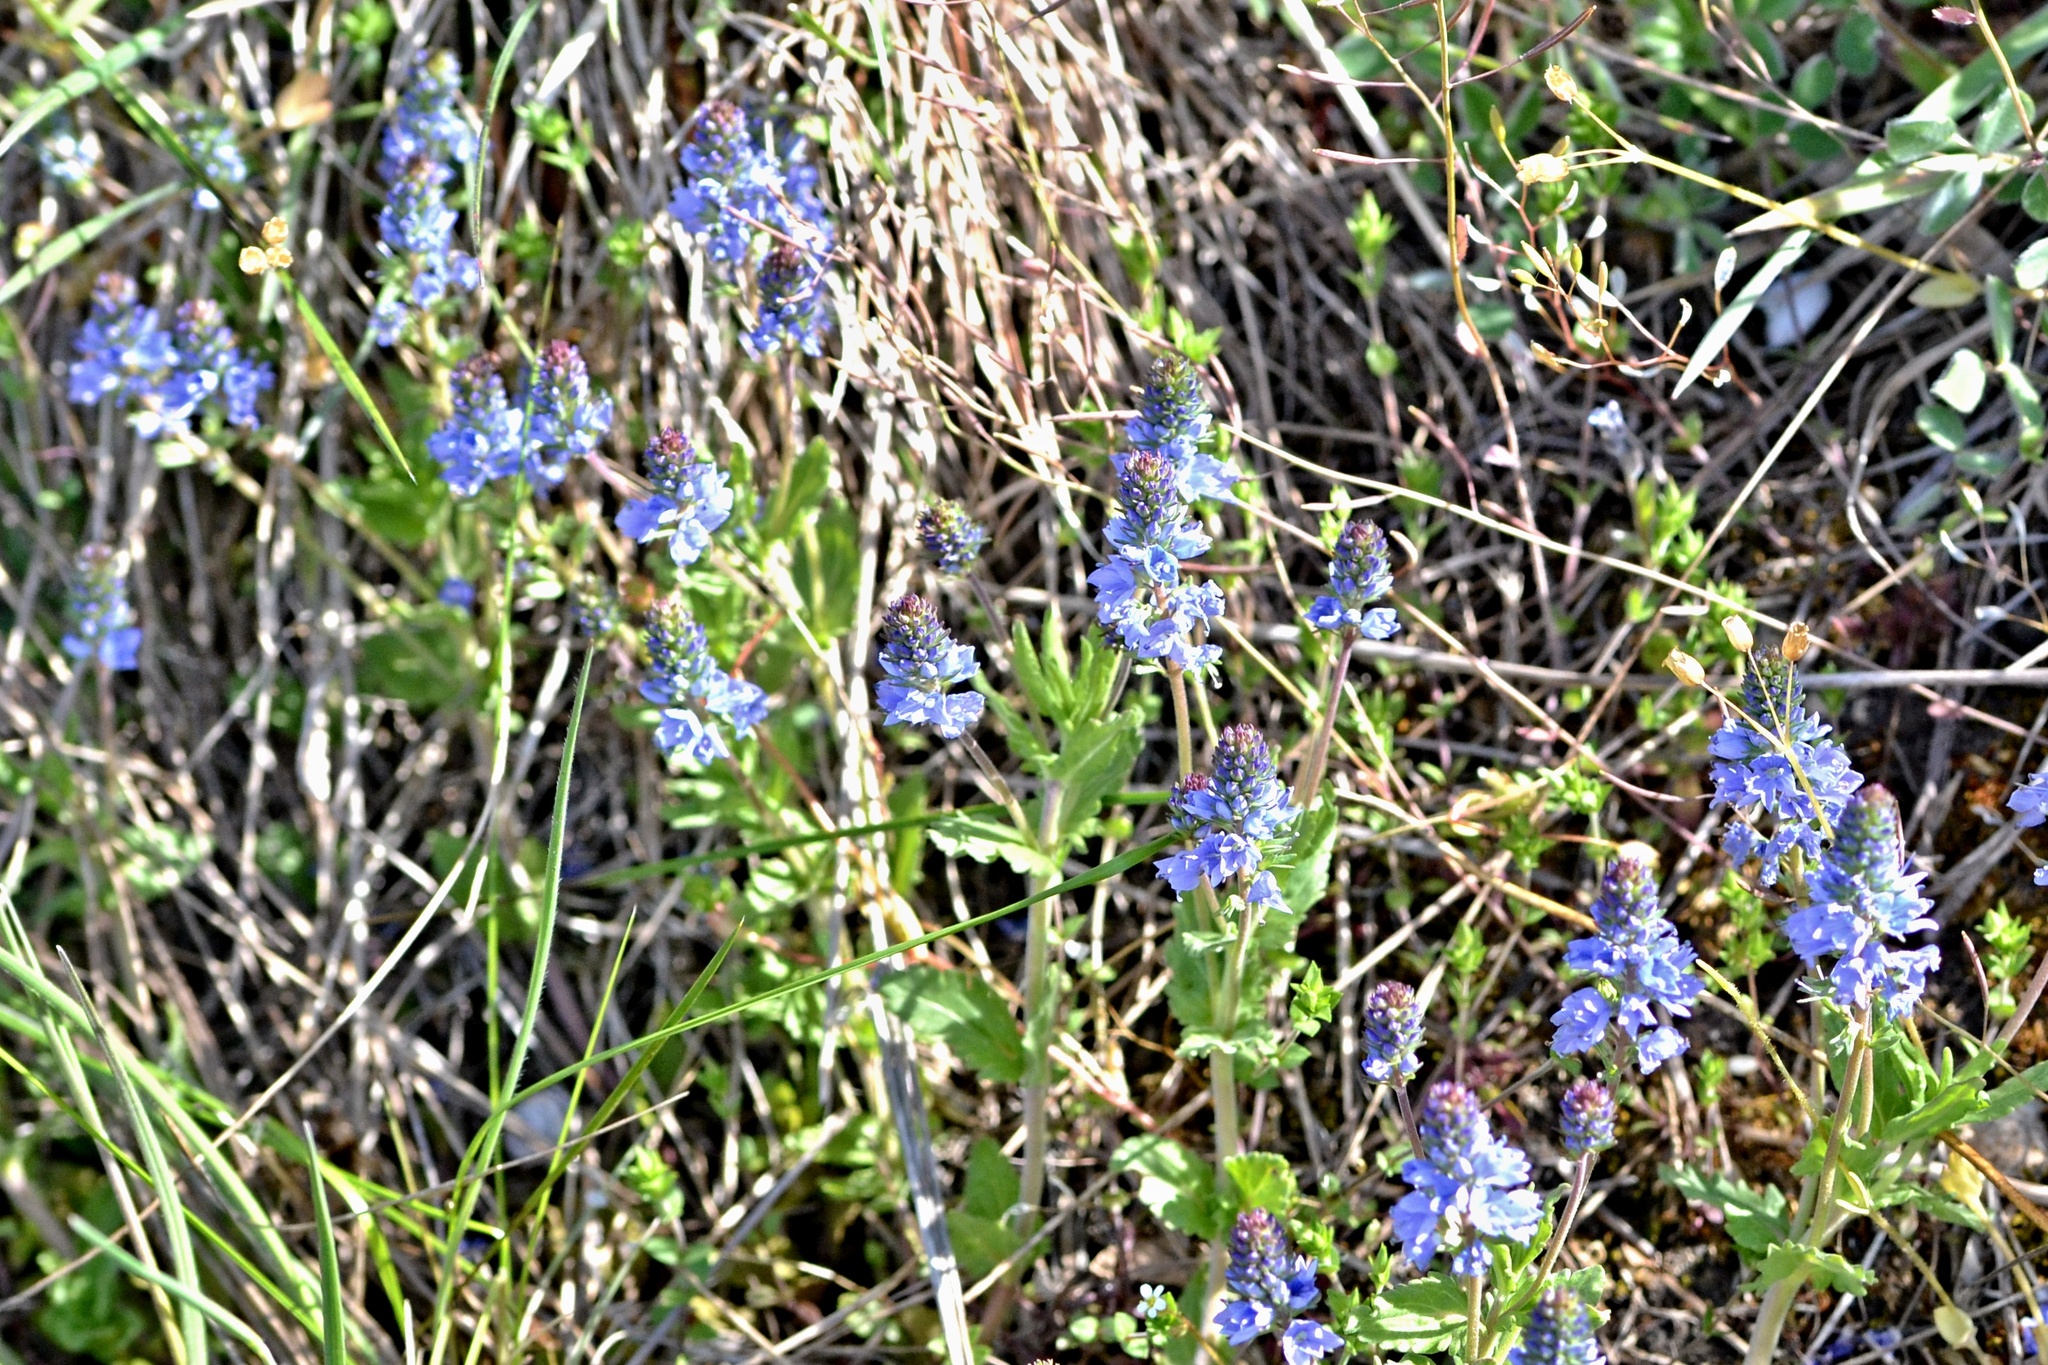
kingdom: Plantae
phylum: Tracheophyta
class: Magnoliopsida
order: Lamiales
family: Plantaginaceae
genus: Veronica
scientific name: Veronica prostrata
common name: Prostrate speedwell
